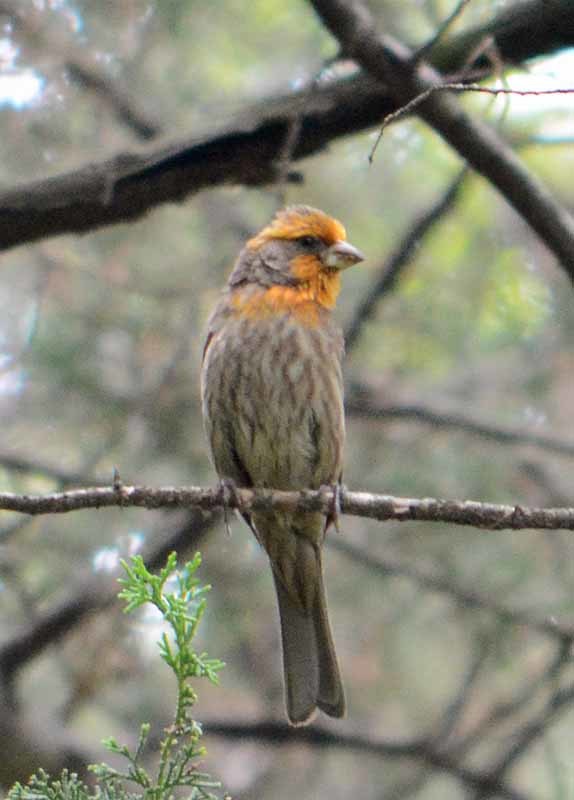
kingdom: Animalia
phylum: Chordata
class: Aves
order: Passeriformes
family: Fringillidae
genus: Haemorhous
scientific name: Haemorhous mexicanus
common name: House finch
